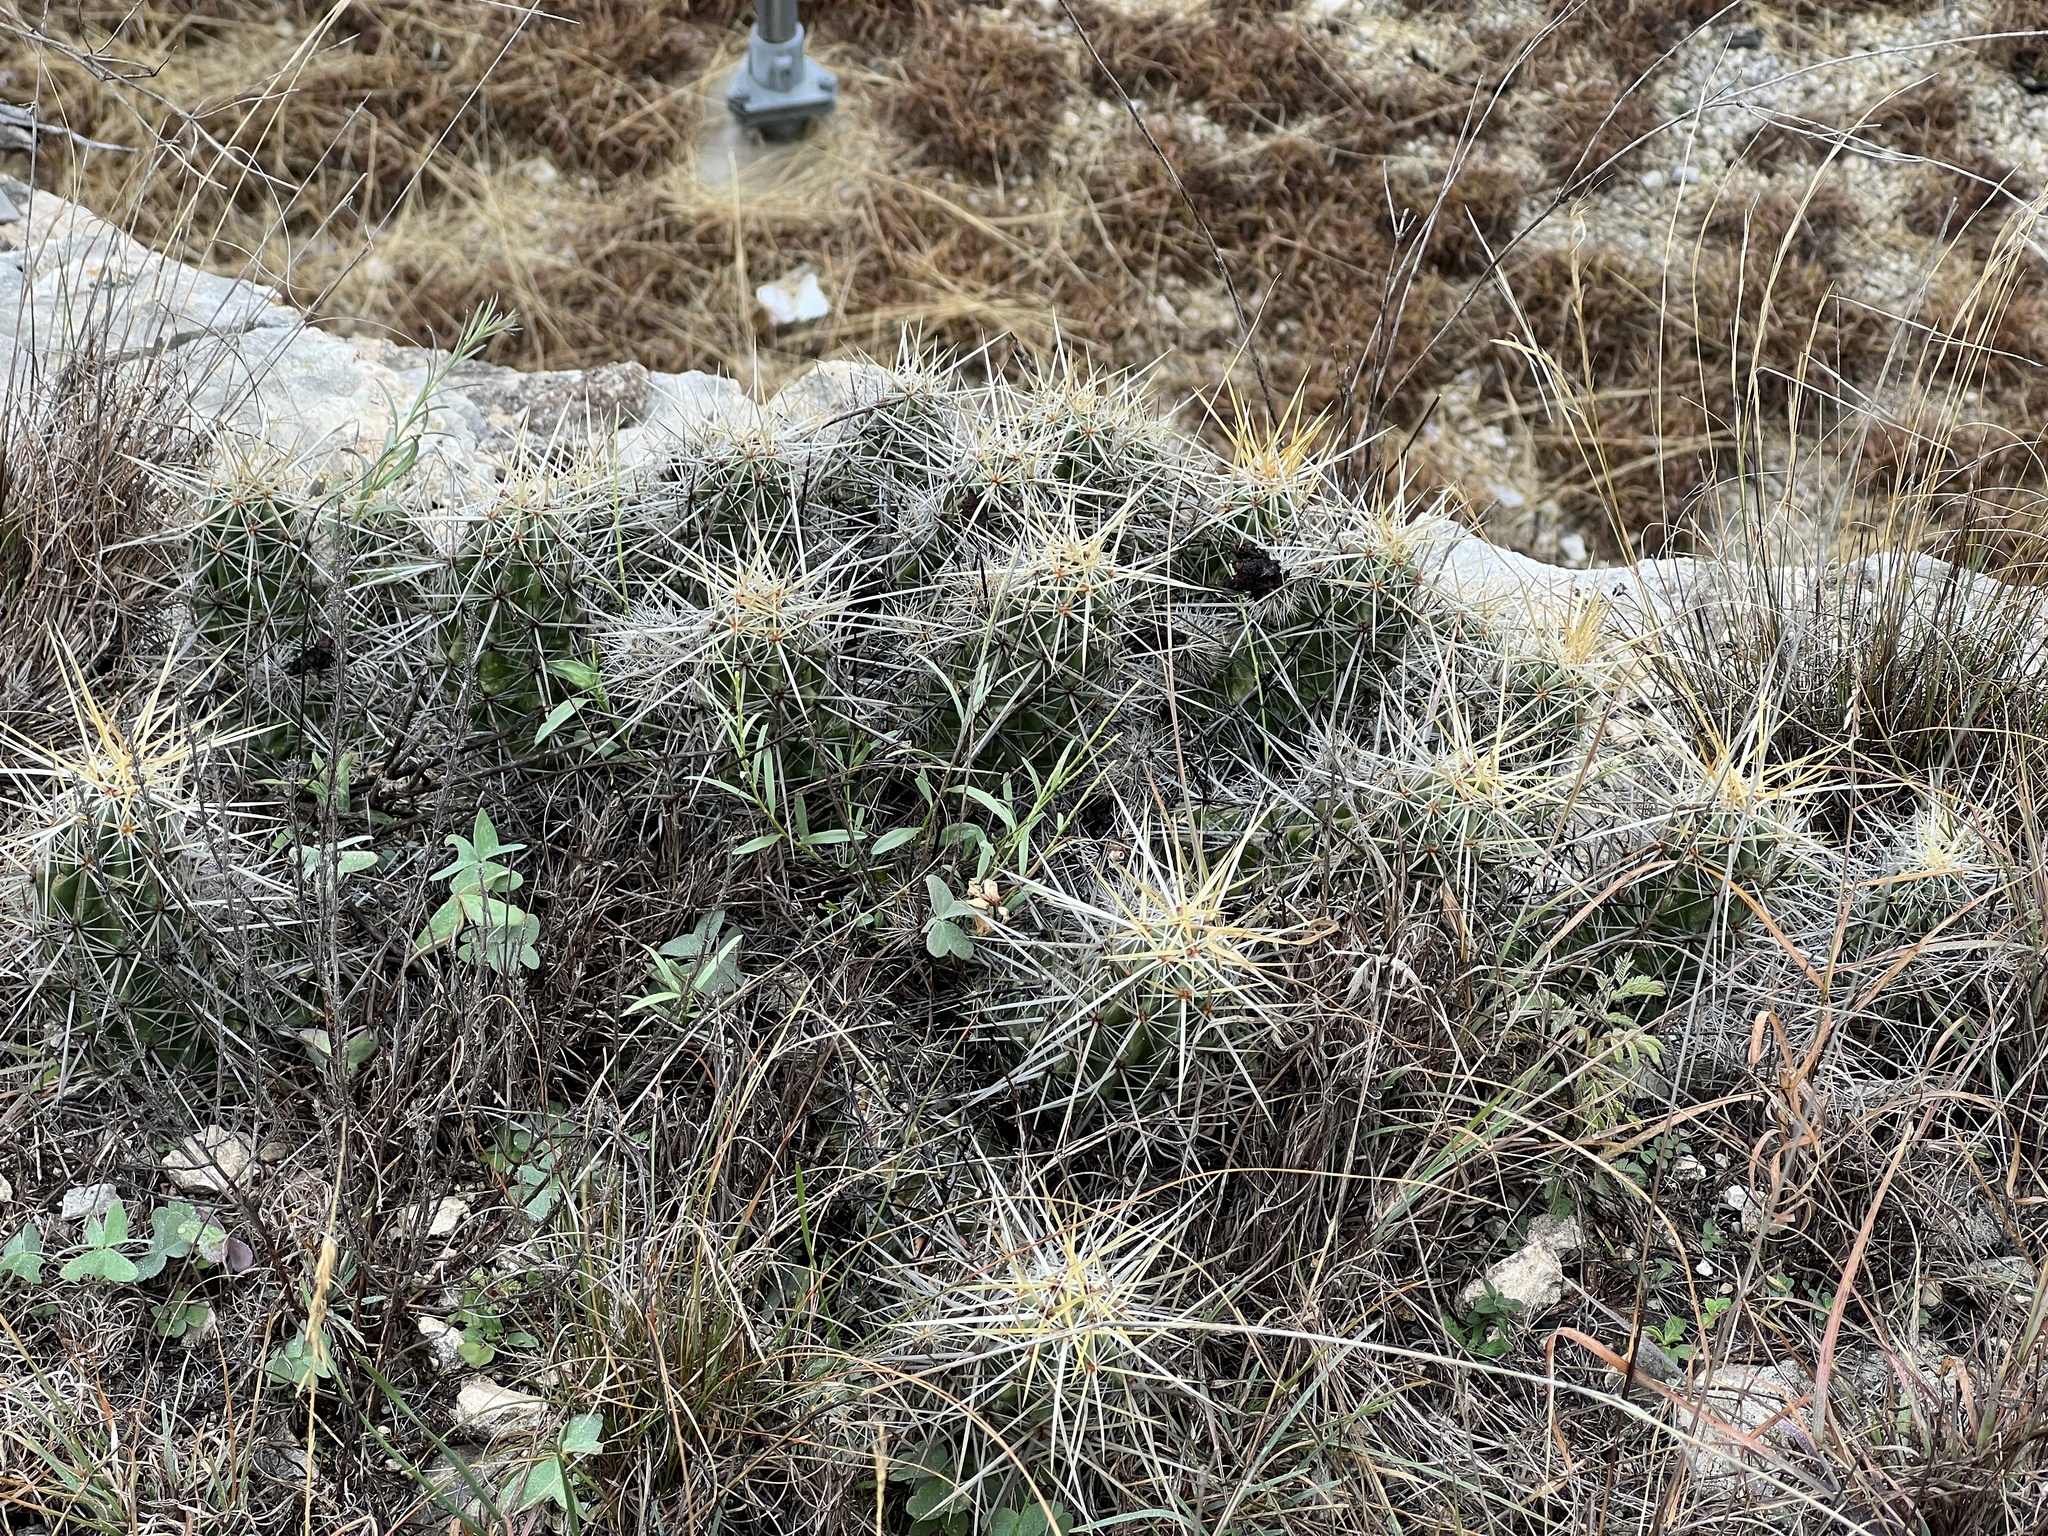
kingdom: Plantae
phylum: Tracheophyta
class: Magnoliopsida
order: Caryophyllales
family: Cactaceae
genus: Echinocereus
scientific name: Echinocereus enneacanthus
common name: Pitaya
